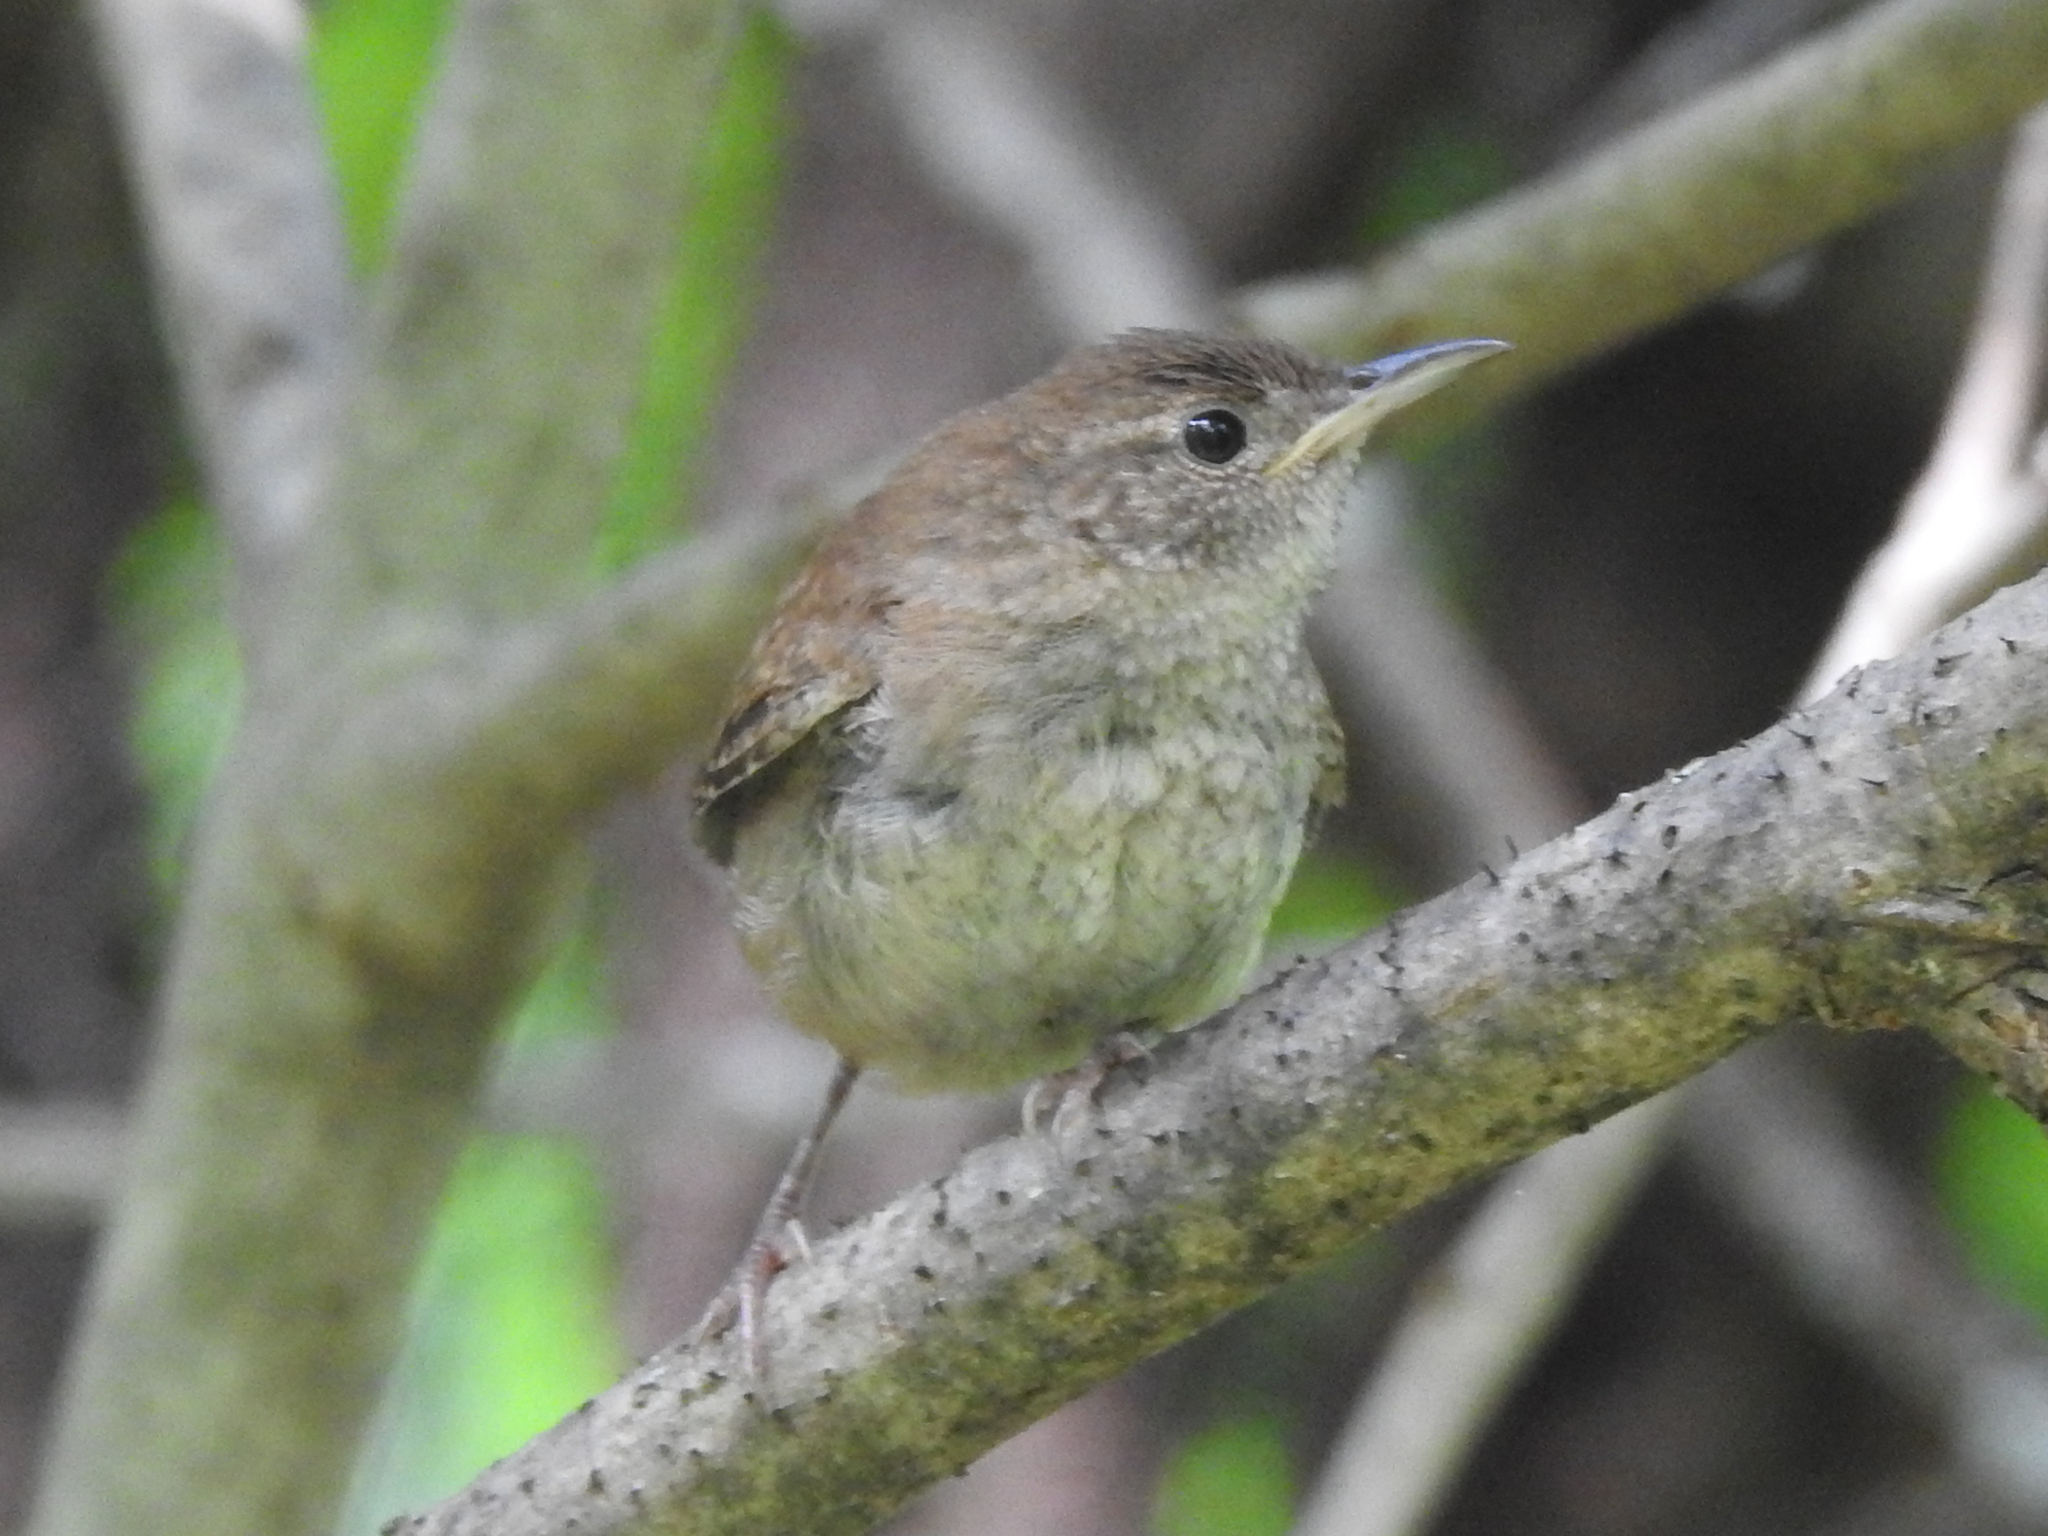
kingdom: Animalia
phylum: Chordata
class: Aves
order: Passeriformes
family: Troglodytidae
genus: Troglodytes
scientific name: Troglodytes aedon
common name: House wren
